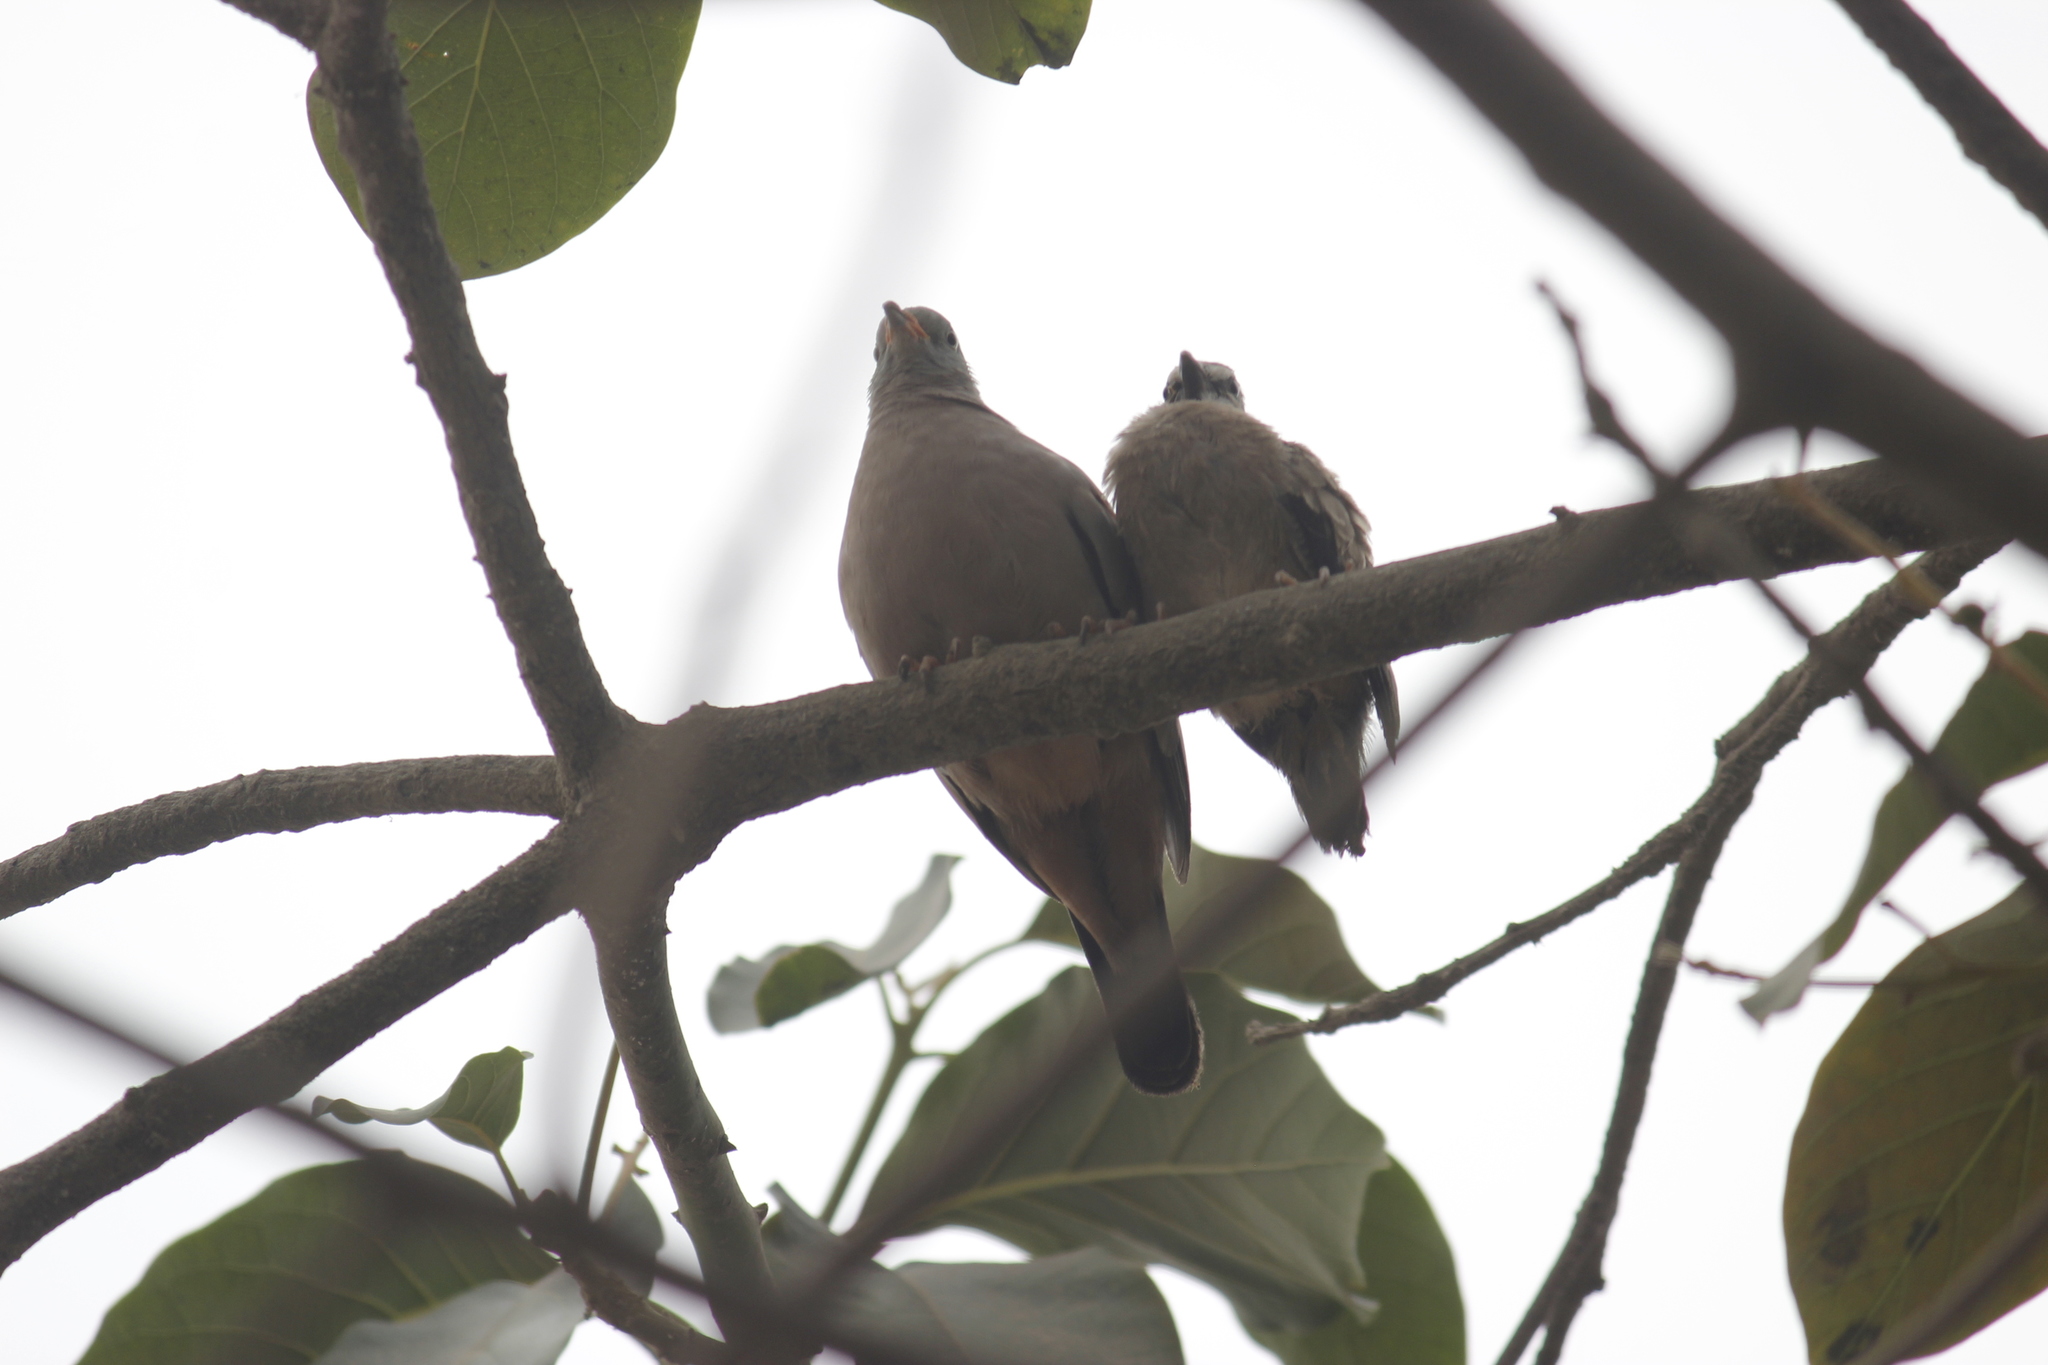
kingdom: Animalia
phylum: Chordata
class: Aves
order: Columbiformes
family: Columbidae
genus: Columbina
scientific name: Columbina cruziana
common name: Croaking ground dove
